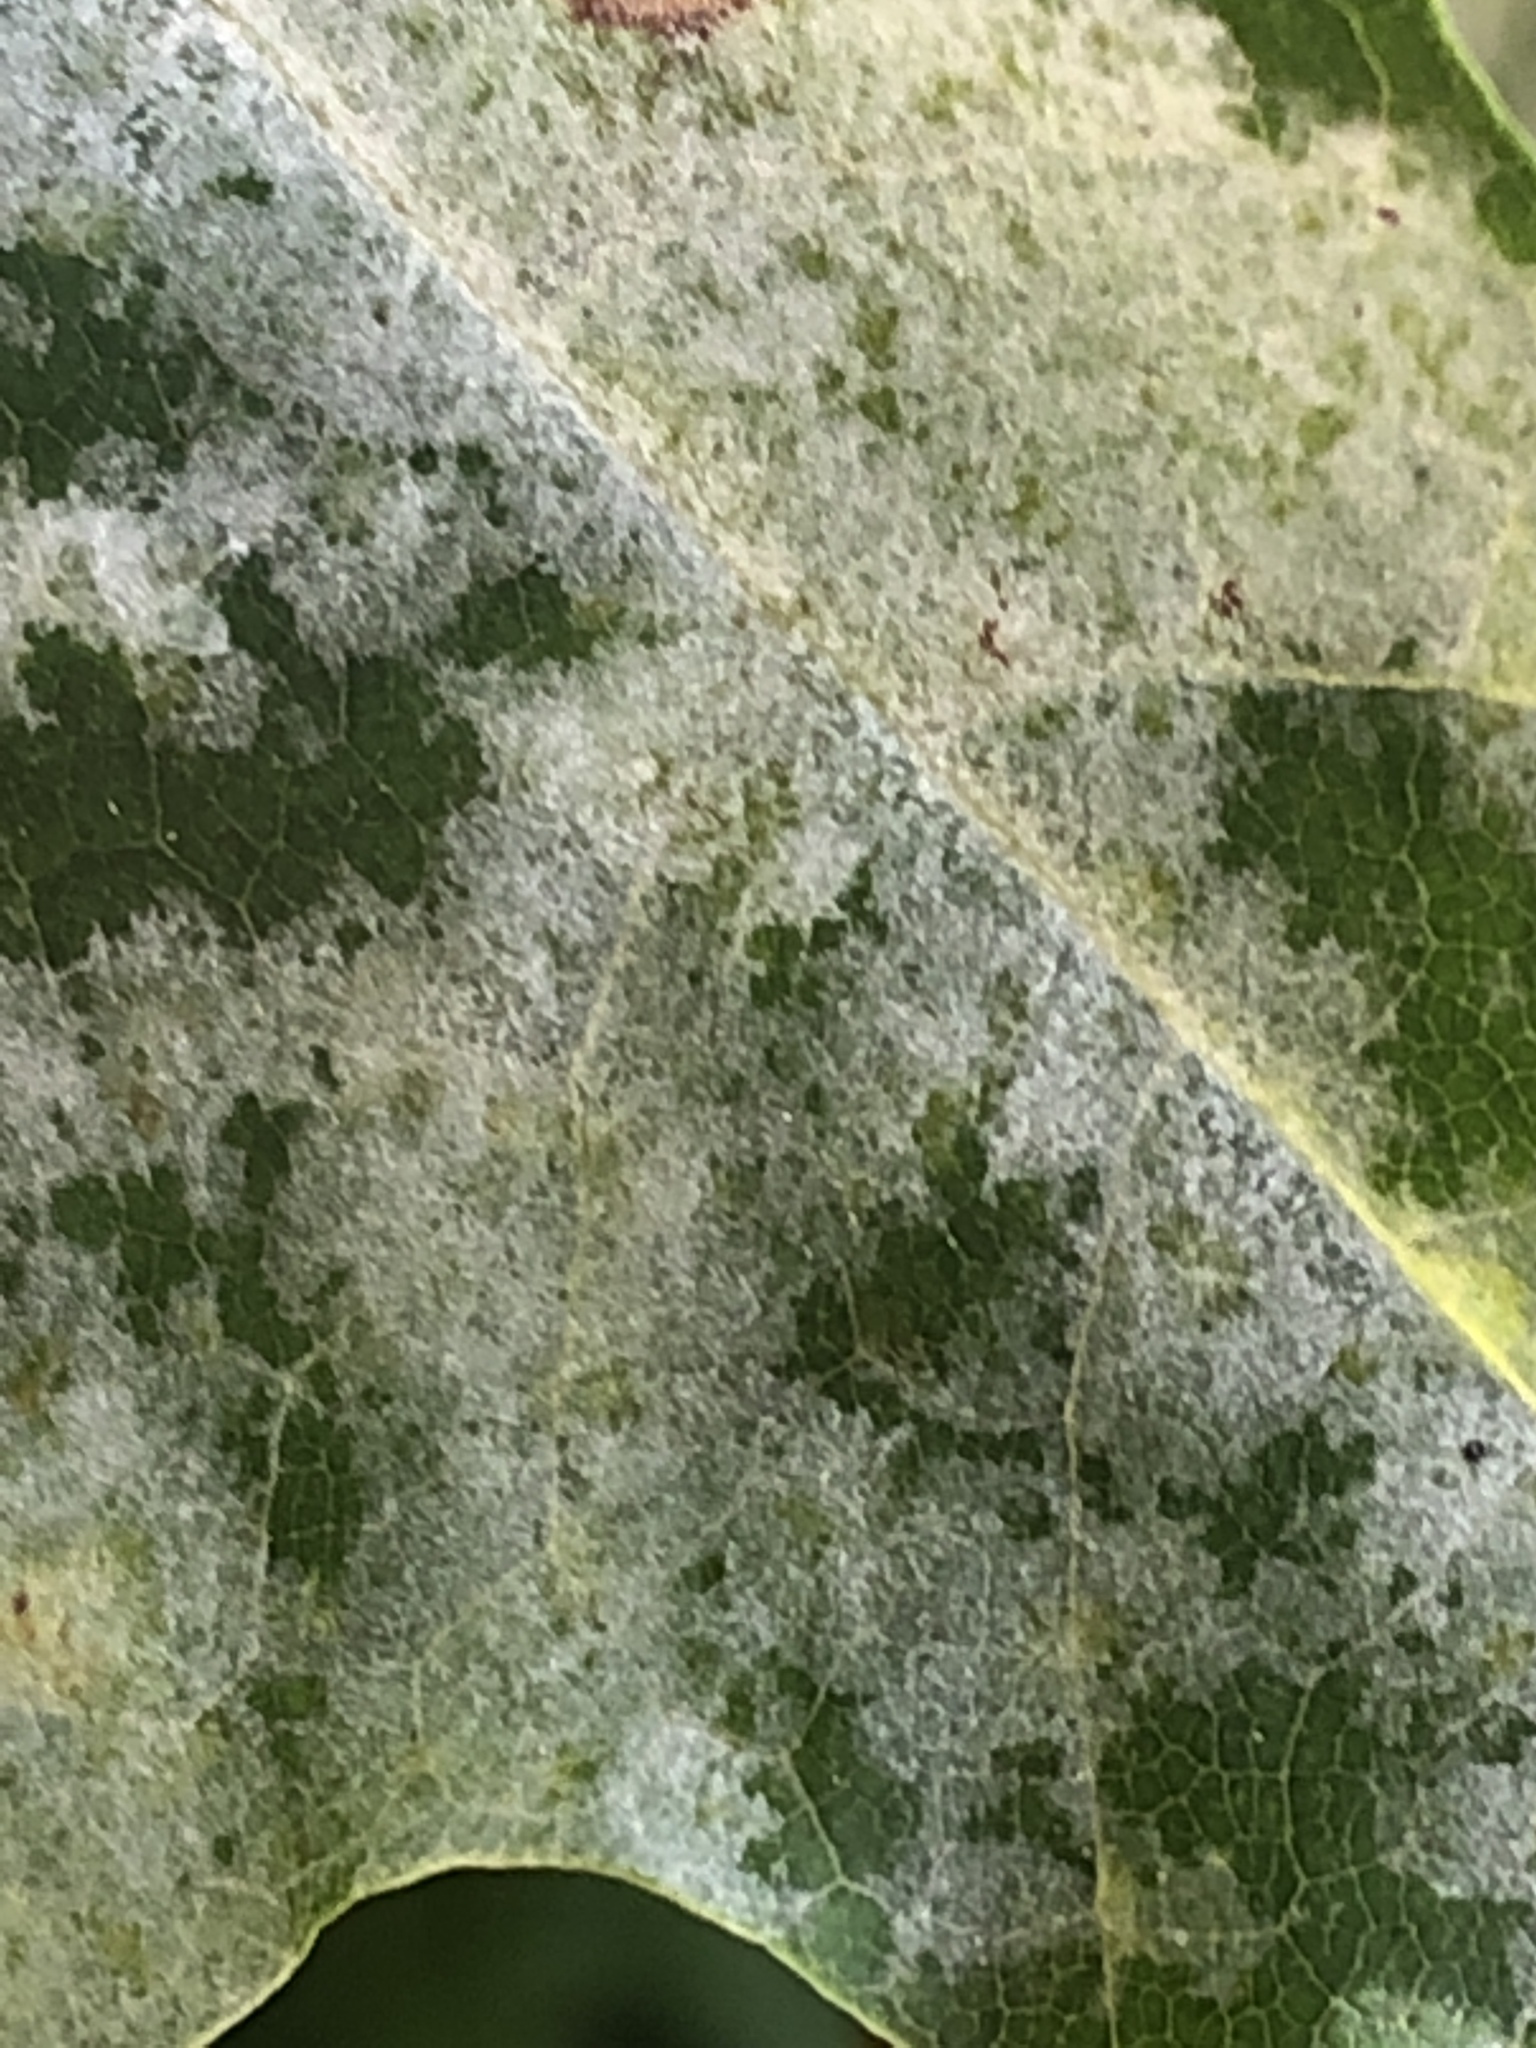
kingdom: Fungi
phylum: Ascomycota
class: Leotiomycetes
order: Helotiales
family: Erysiphaceae
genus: Sawadaea
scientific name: Sawadaea tulasnei
